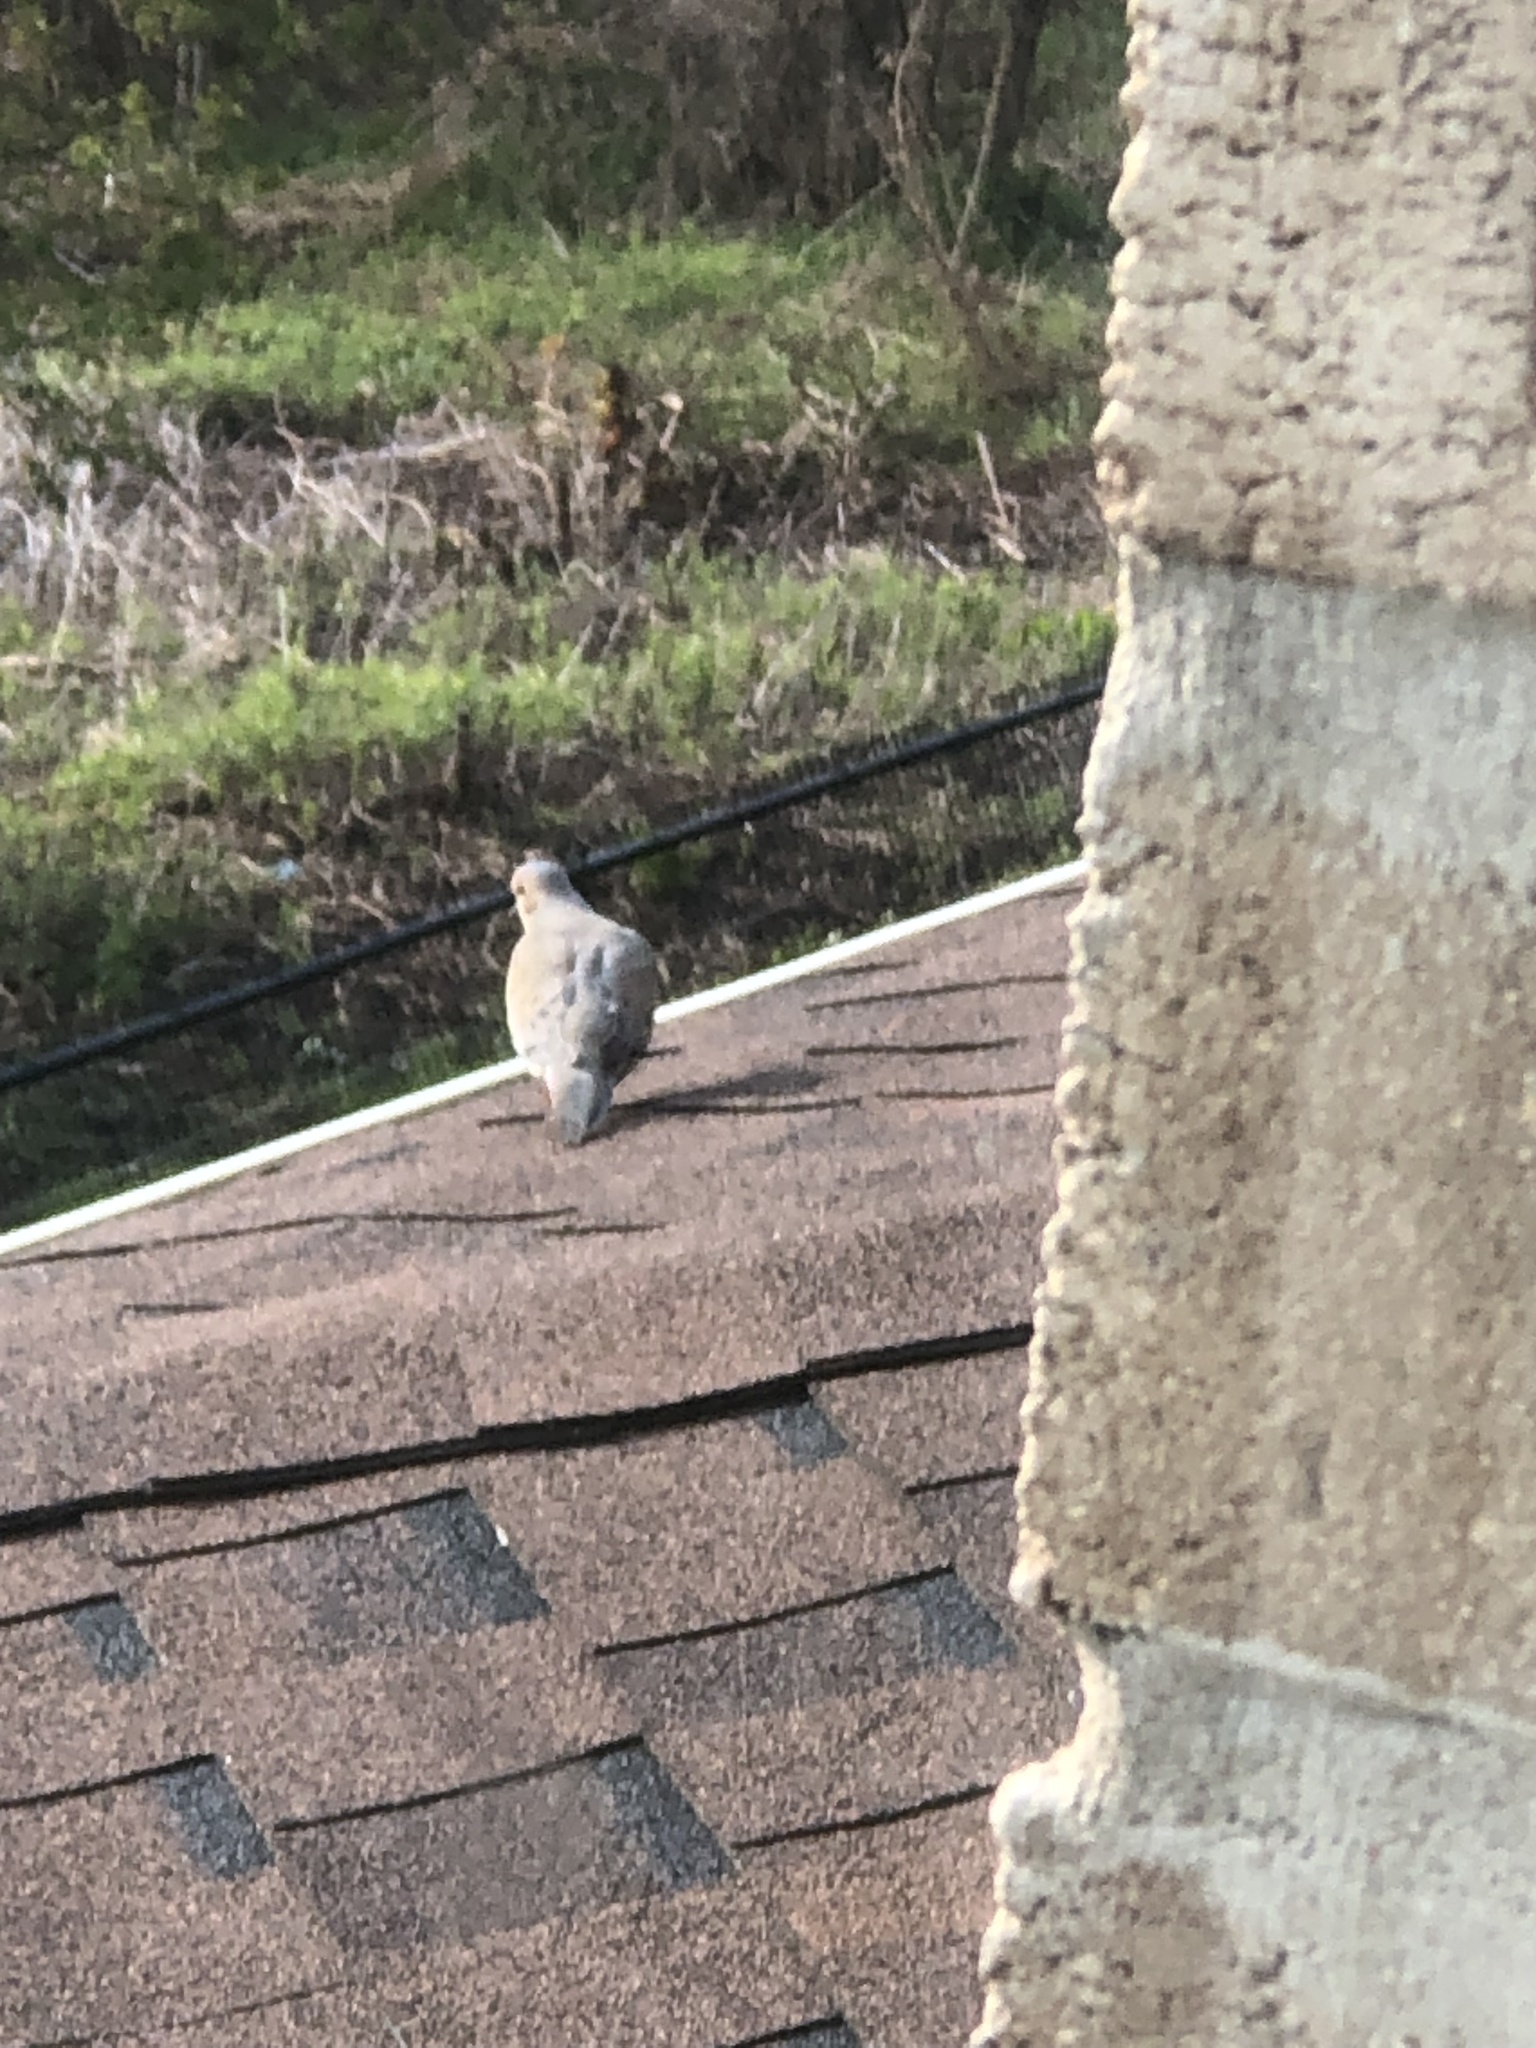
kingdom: Animalia
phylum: Chordata
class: Aves
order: Columbiformes
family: Columbidae
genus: Zenaida
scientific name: Zenaida macroura
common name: Mourning dove
